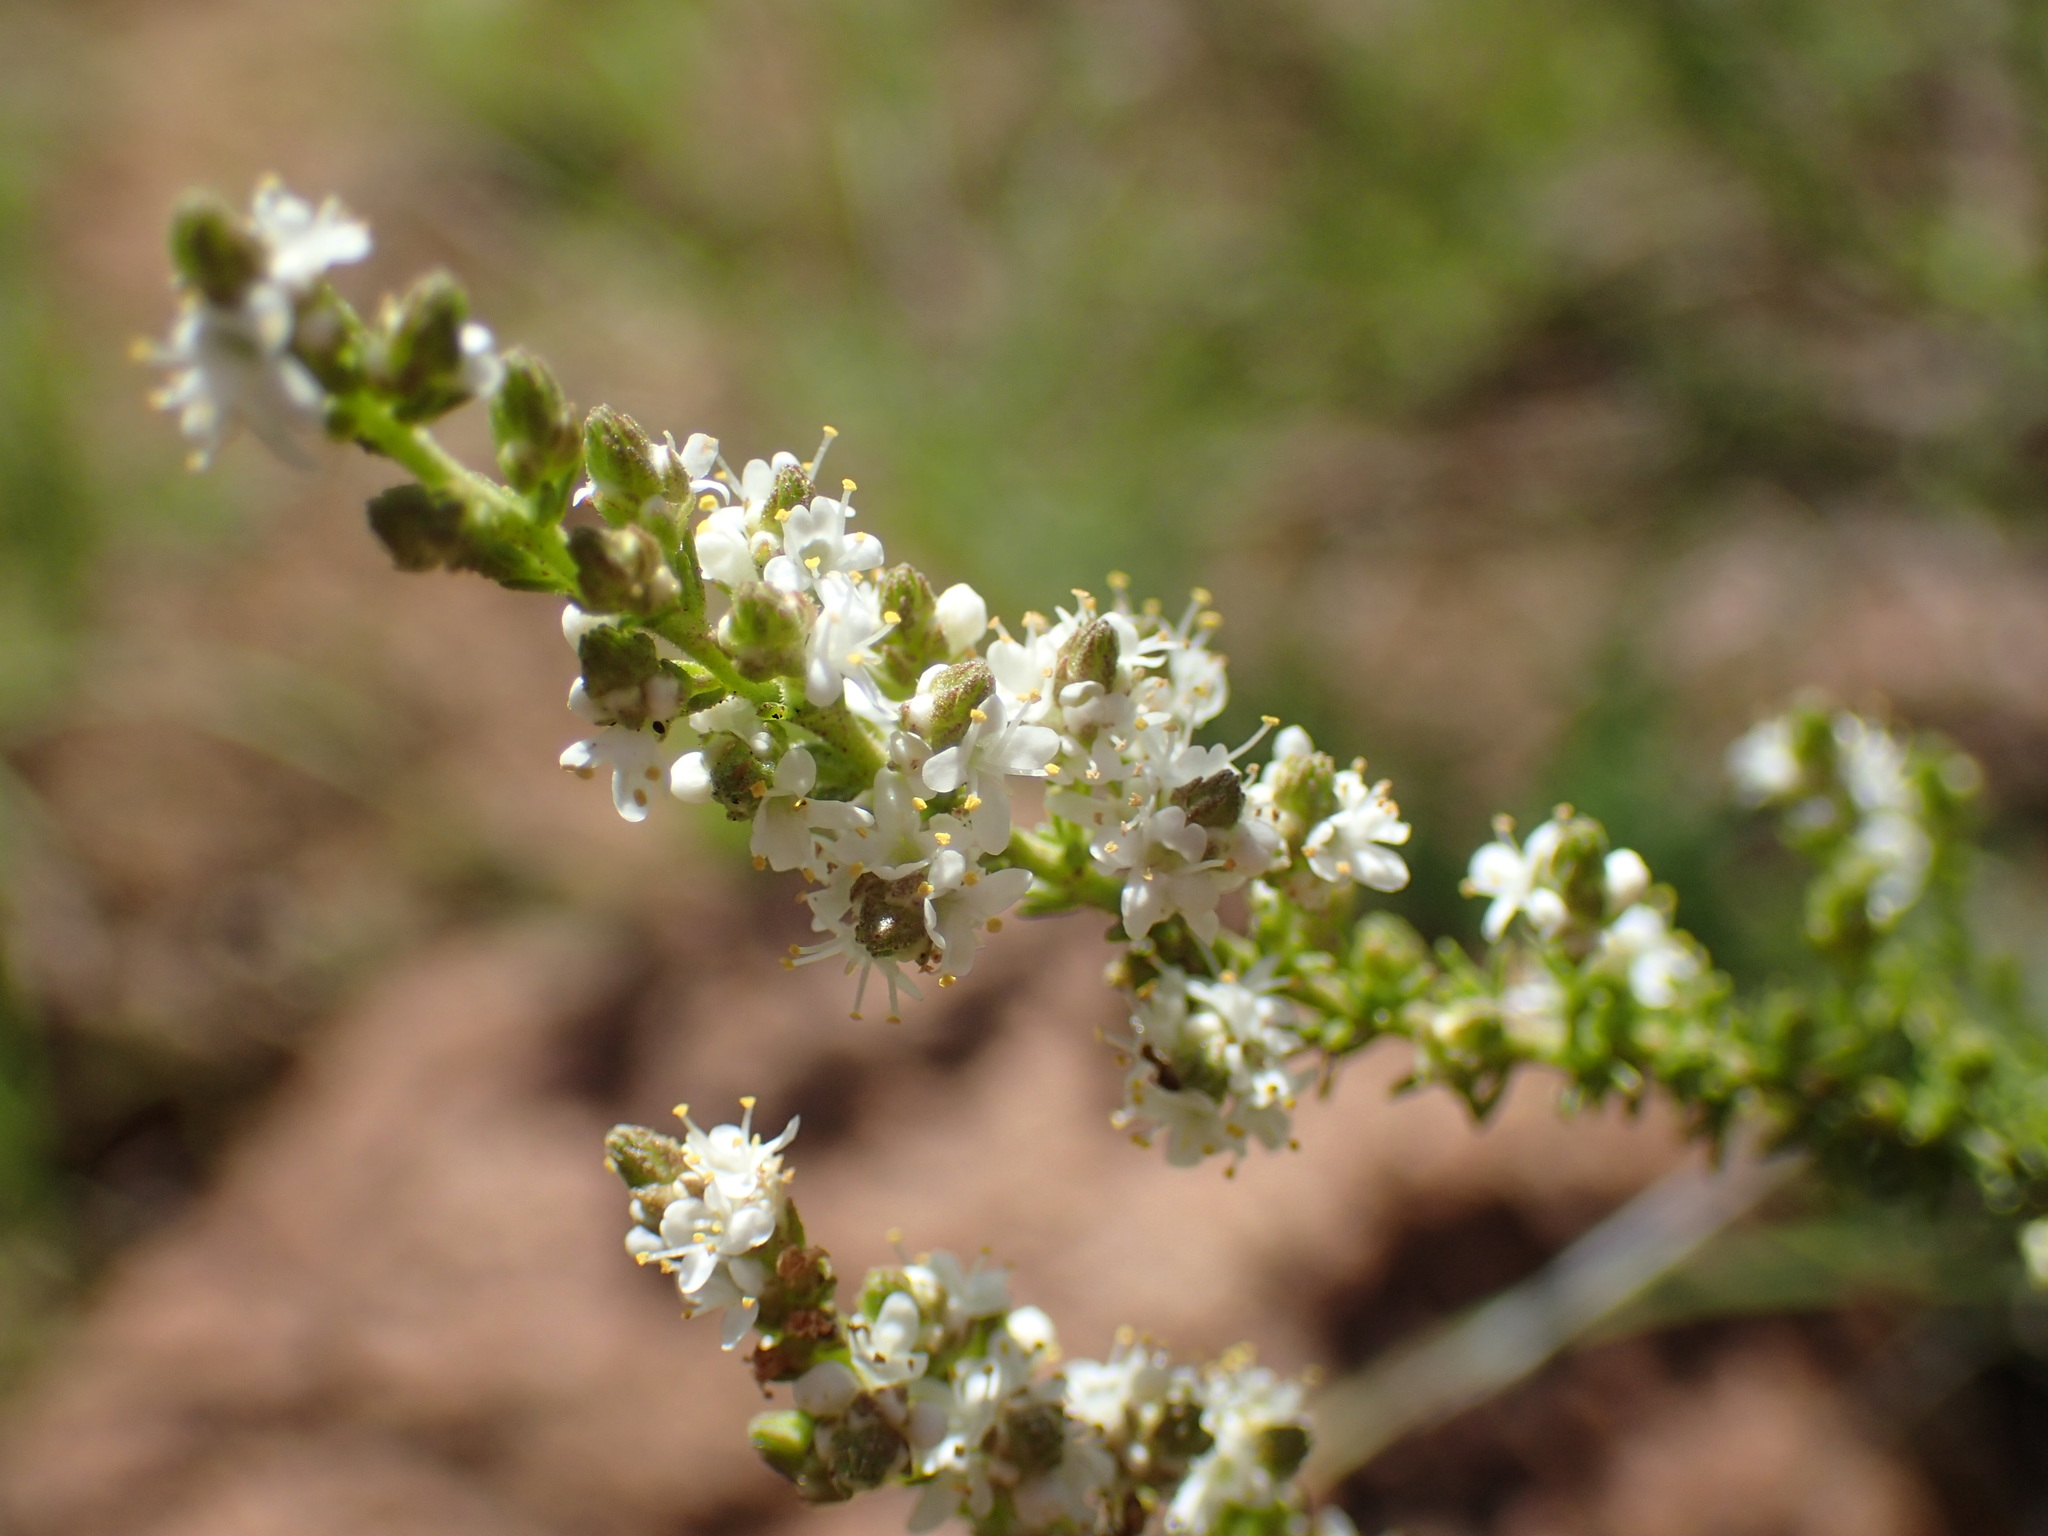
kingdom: Plantae
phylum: Tracheophyta
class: Magnoliopsida
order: Lamiales
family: Scrophulariaceae
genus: Selago
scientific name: Selago densiflora
